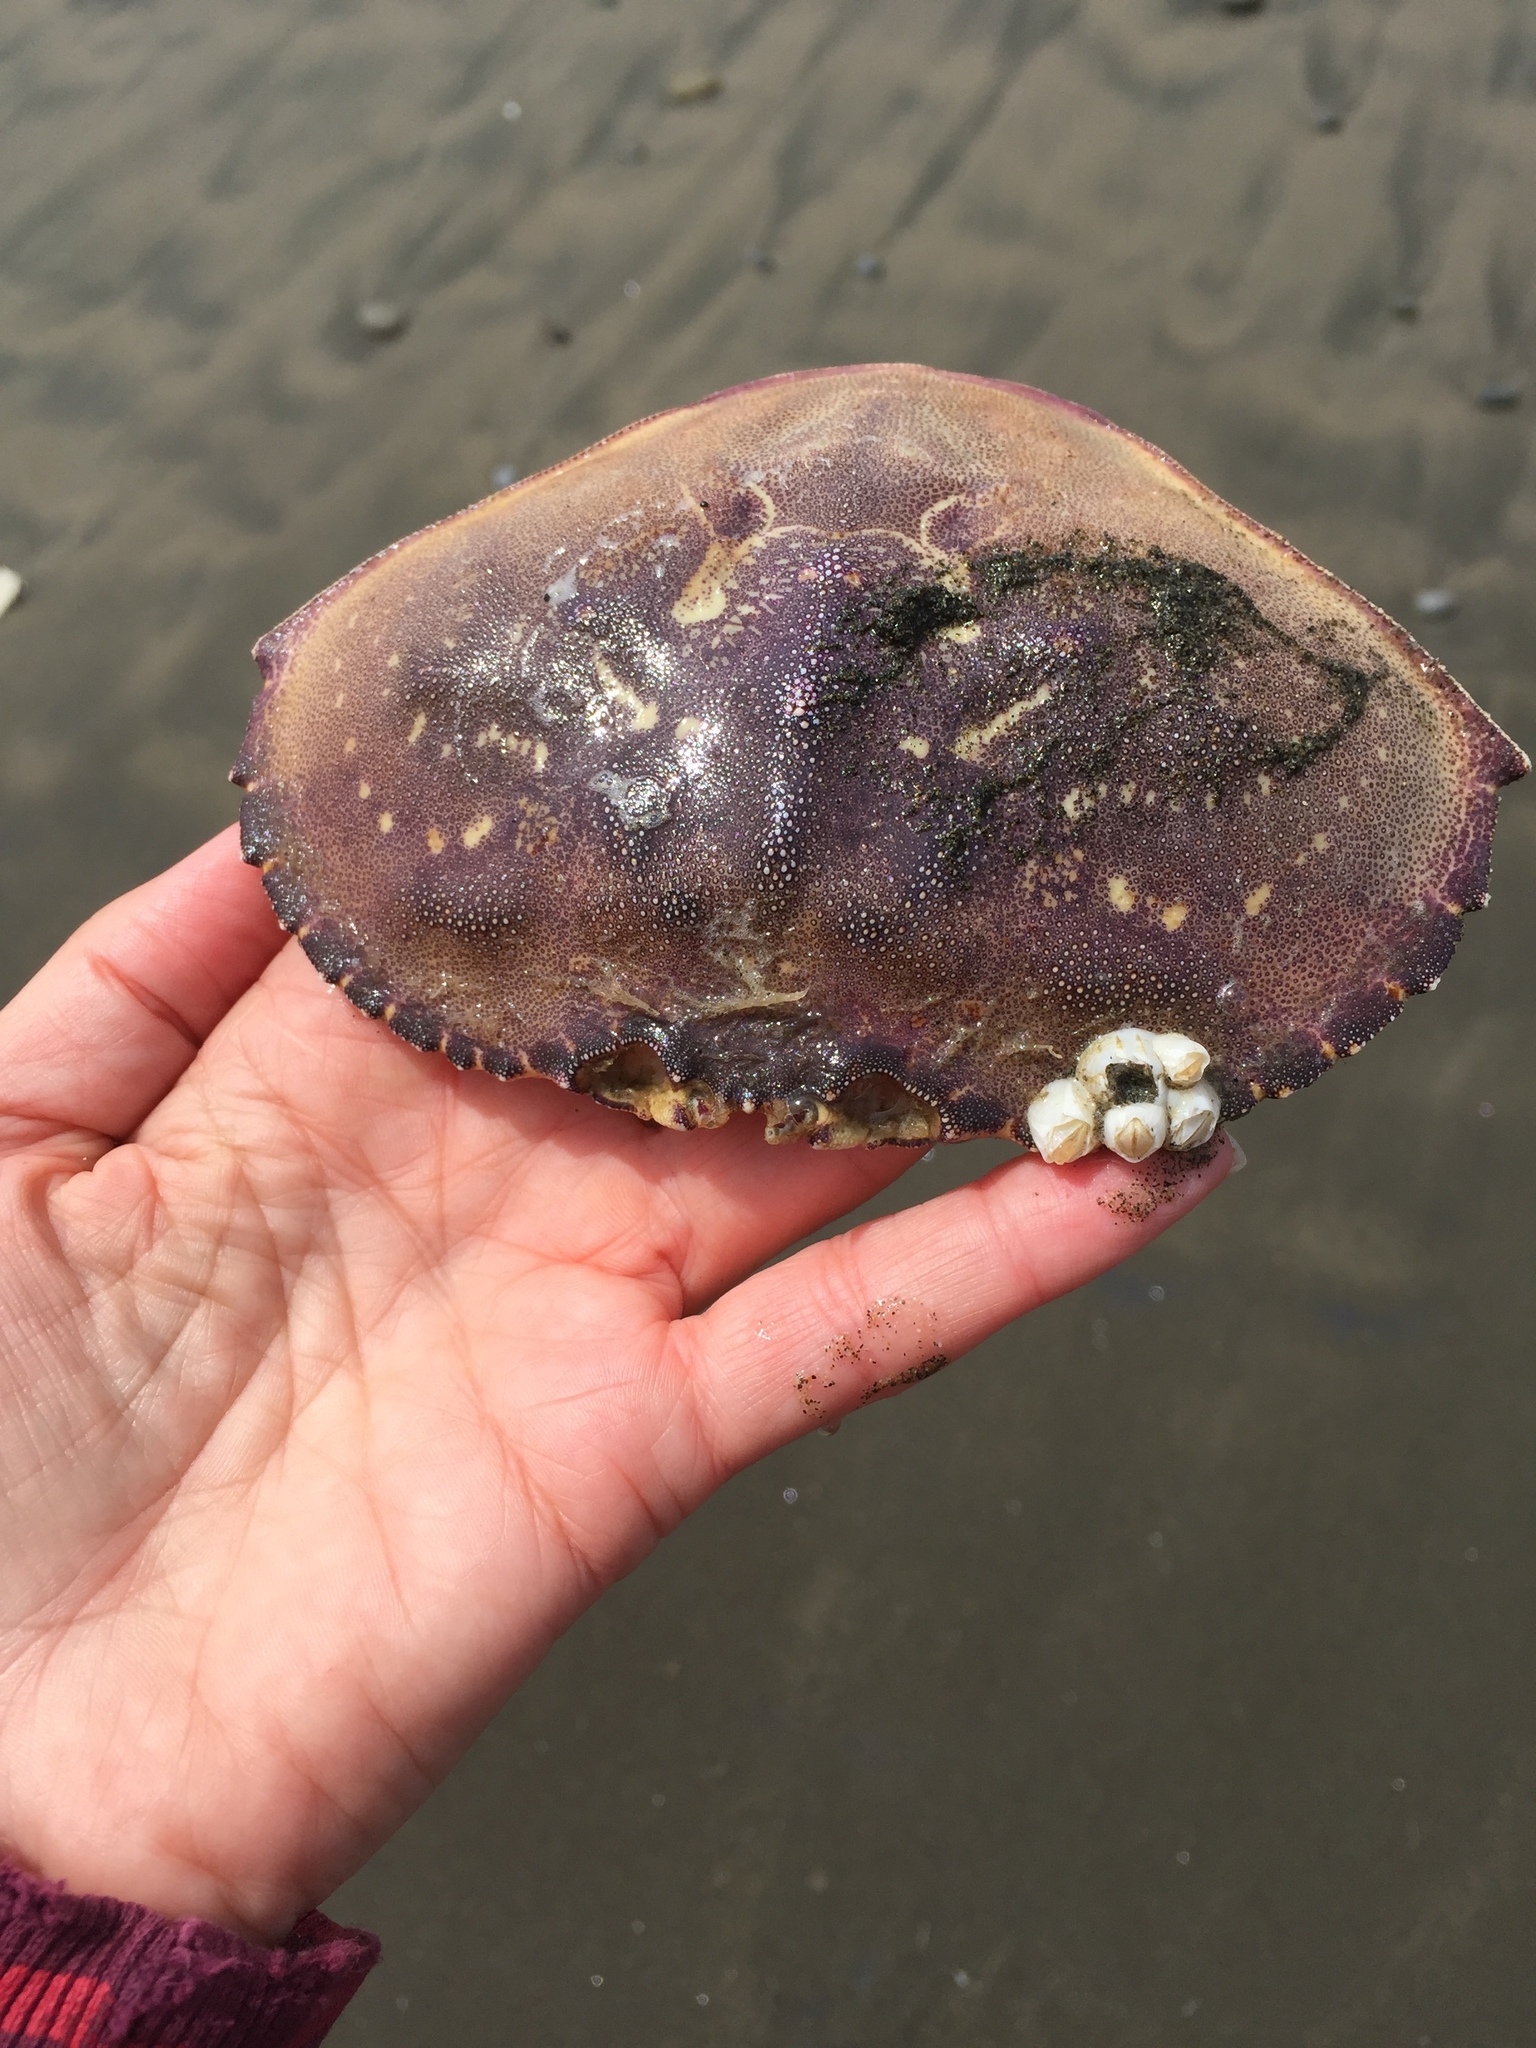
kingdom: Animalia
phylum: Arthropoda
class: Malacostraca
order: Decapoda
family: Cancridae
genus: Metacarcinus
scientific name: Metacarcinus magister
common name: Californian crab
